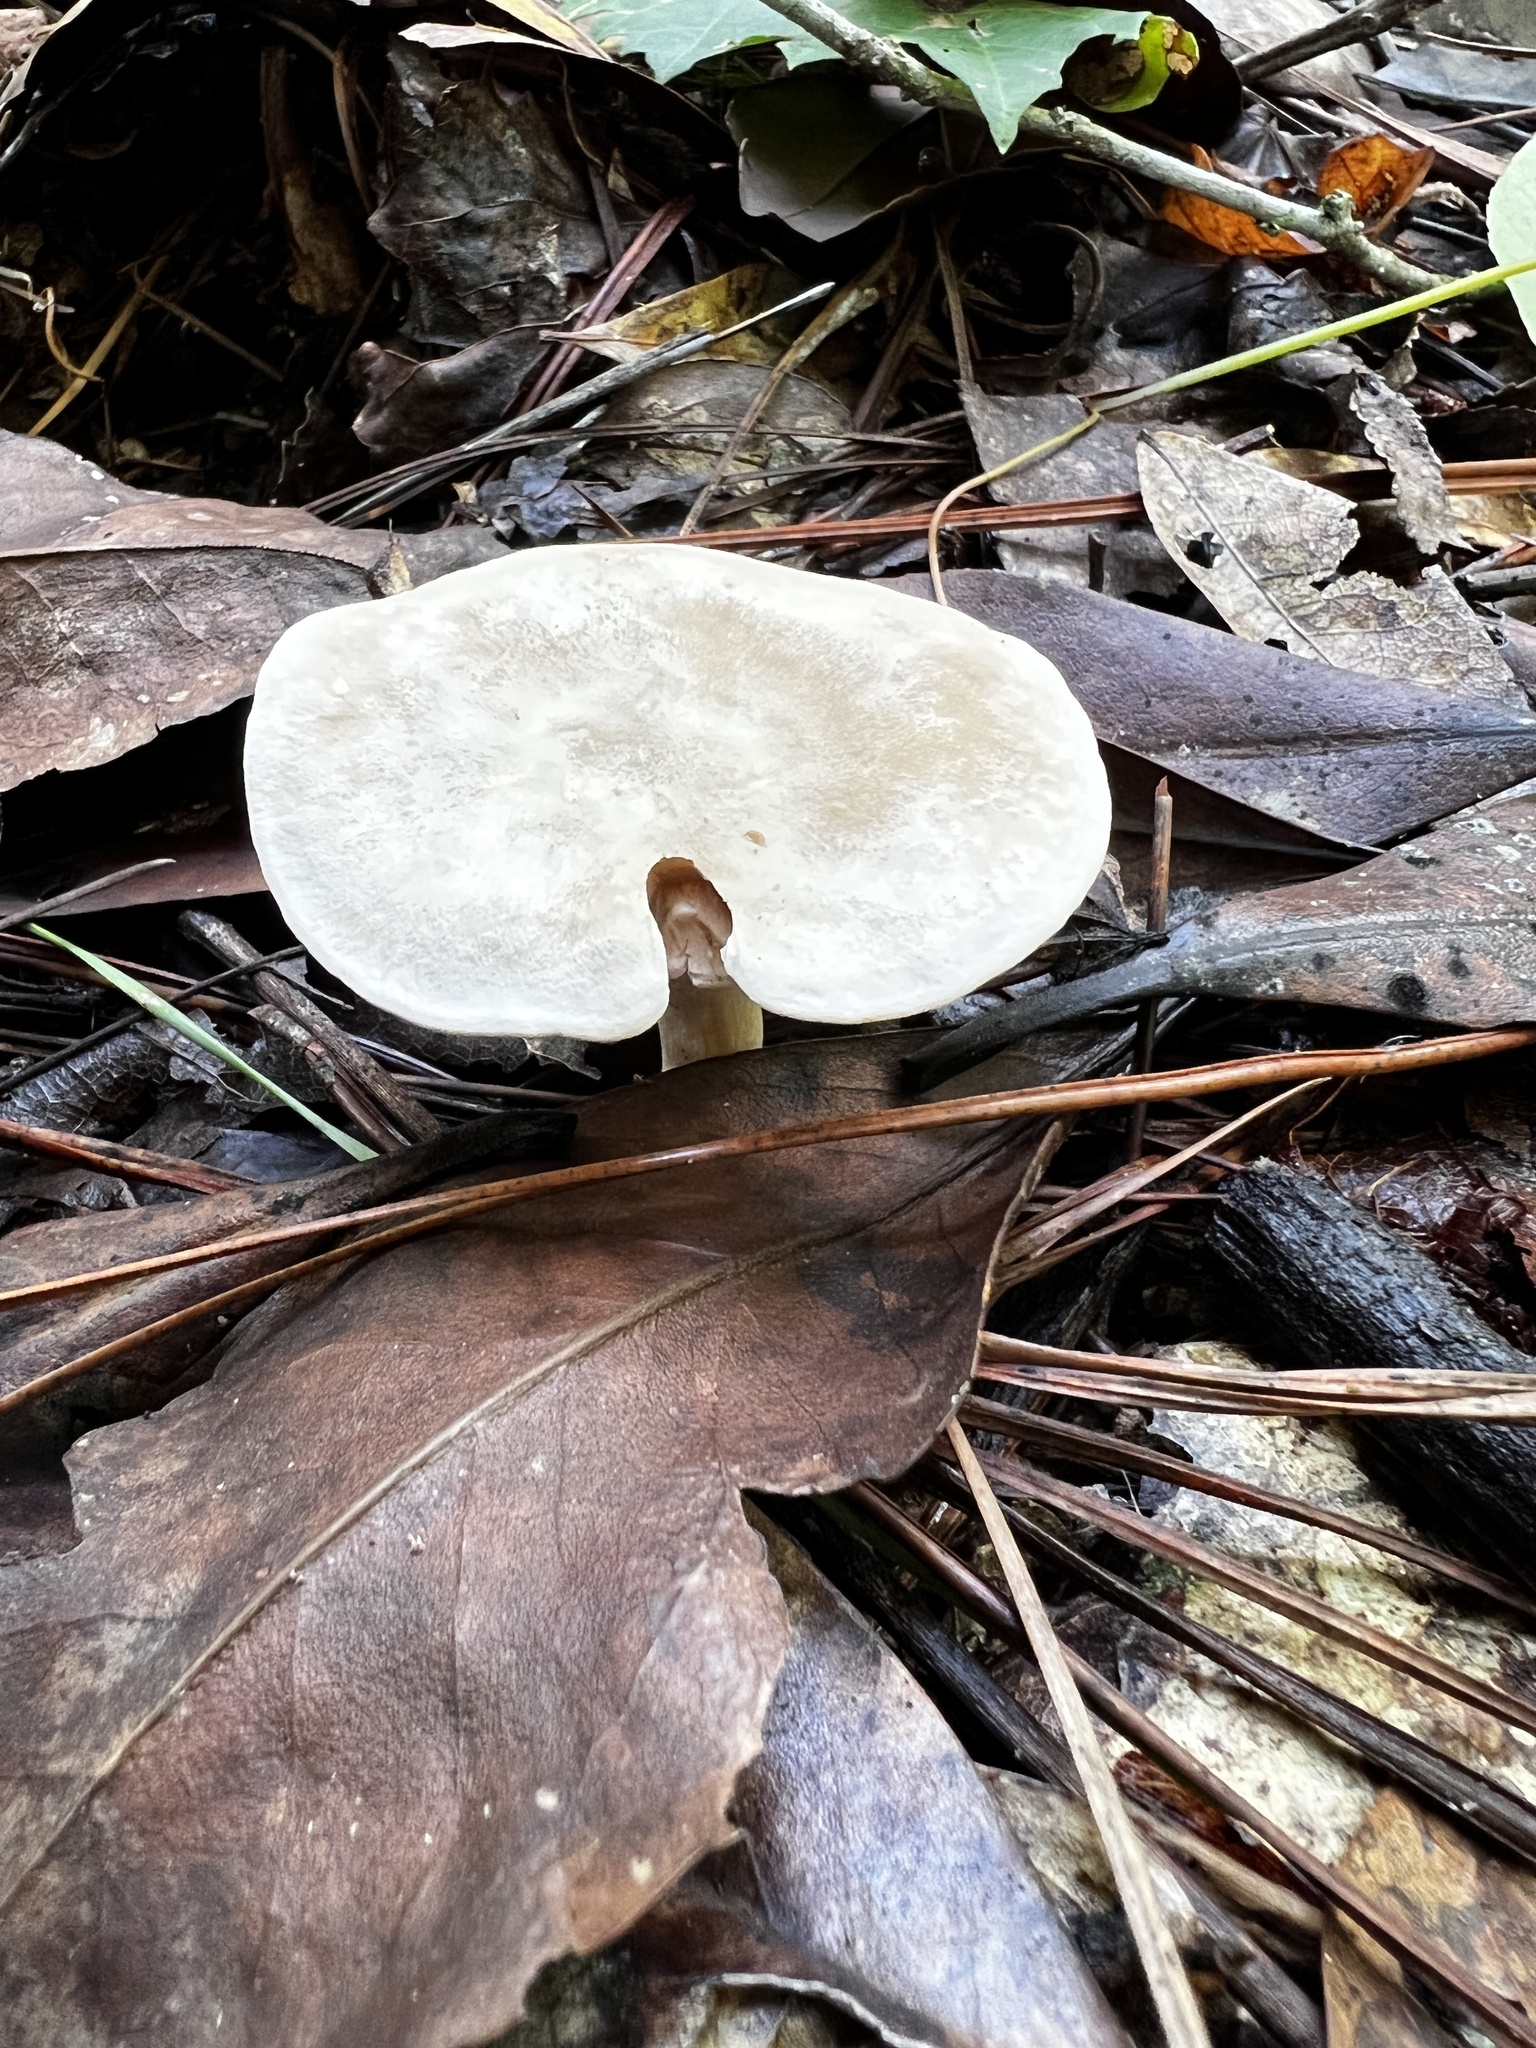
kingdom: Fungi
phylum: Basidiomycota
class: Agaricomycetes
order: Agaricales
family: Entolomataceae
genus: Rhodocybe
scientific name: Rhodocybe roseiavellanea
